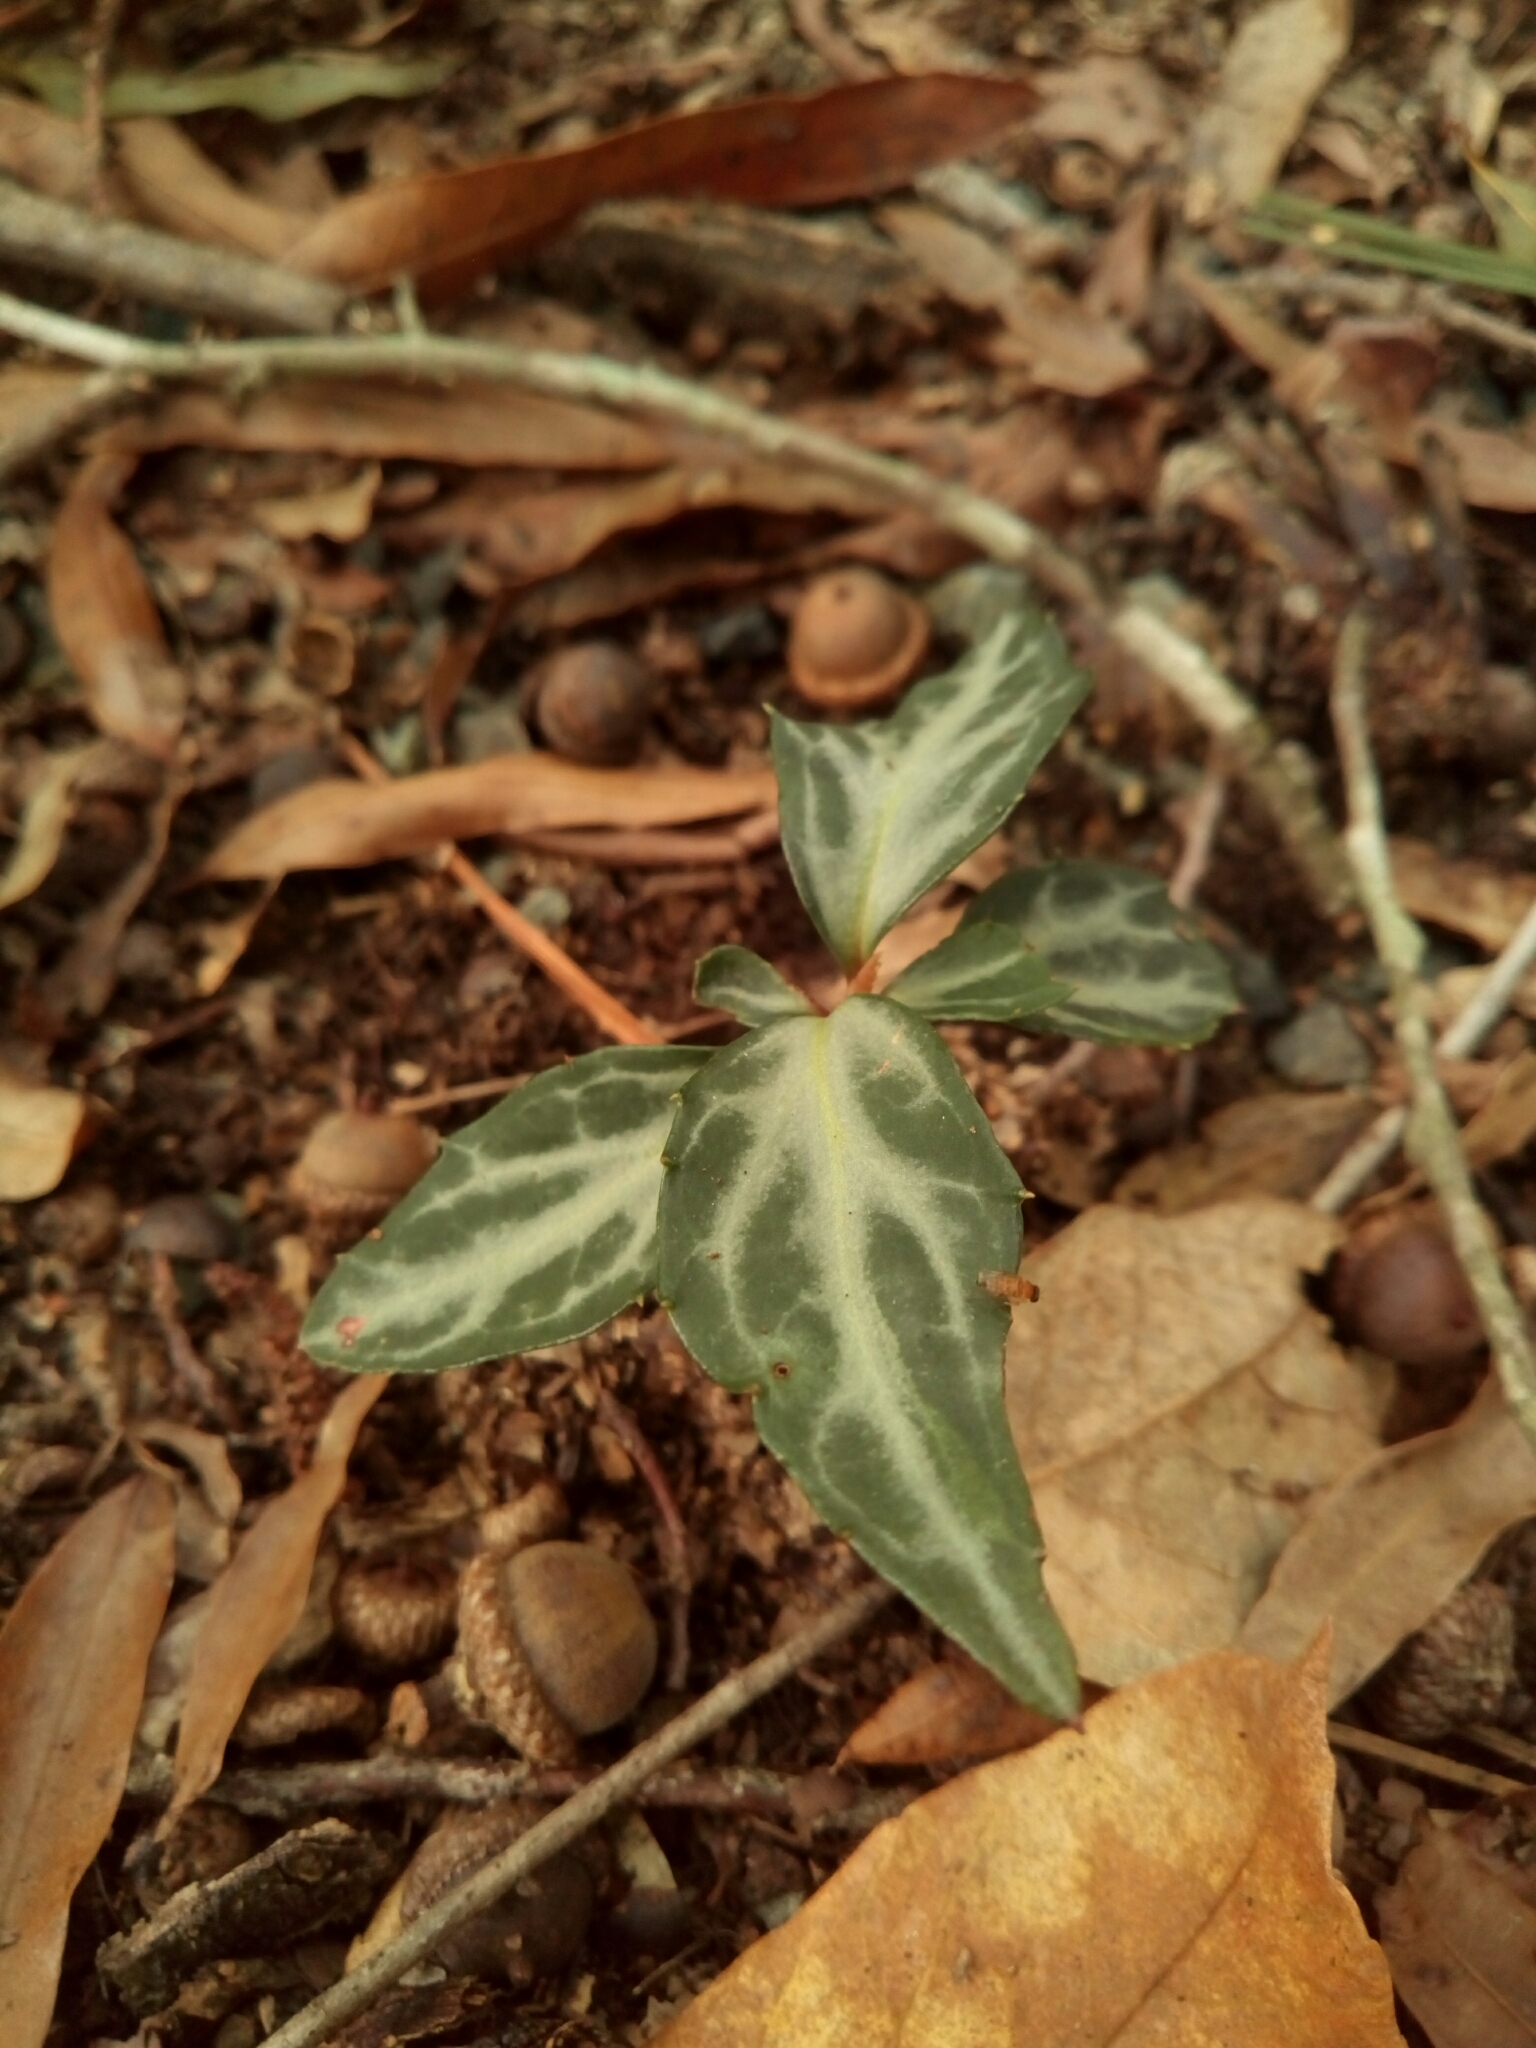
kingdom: Plantae
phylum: Tracheophyta
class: Magnoliopsida
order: Ericales
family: Ericaceae
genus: Chimaphila
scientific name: Chimaphila maculata
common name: Spotted pipsissewa
